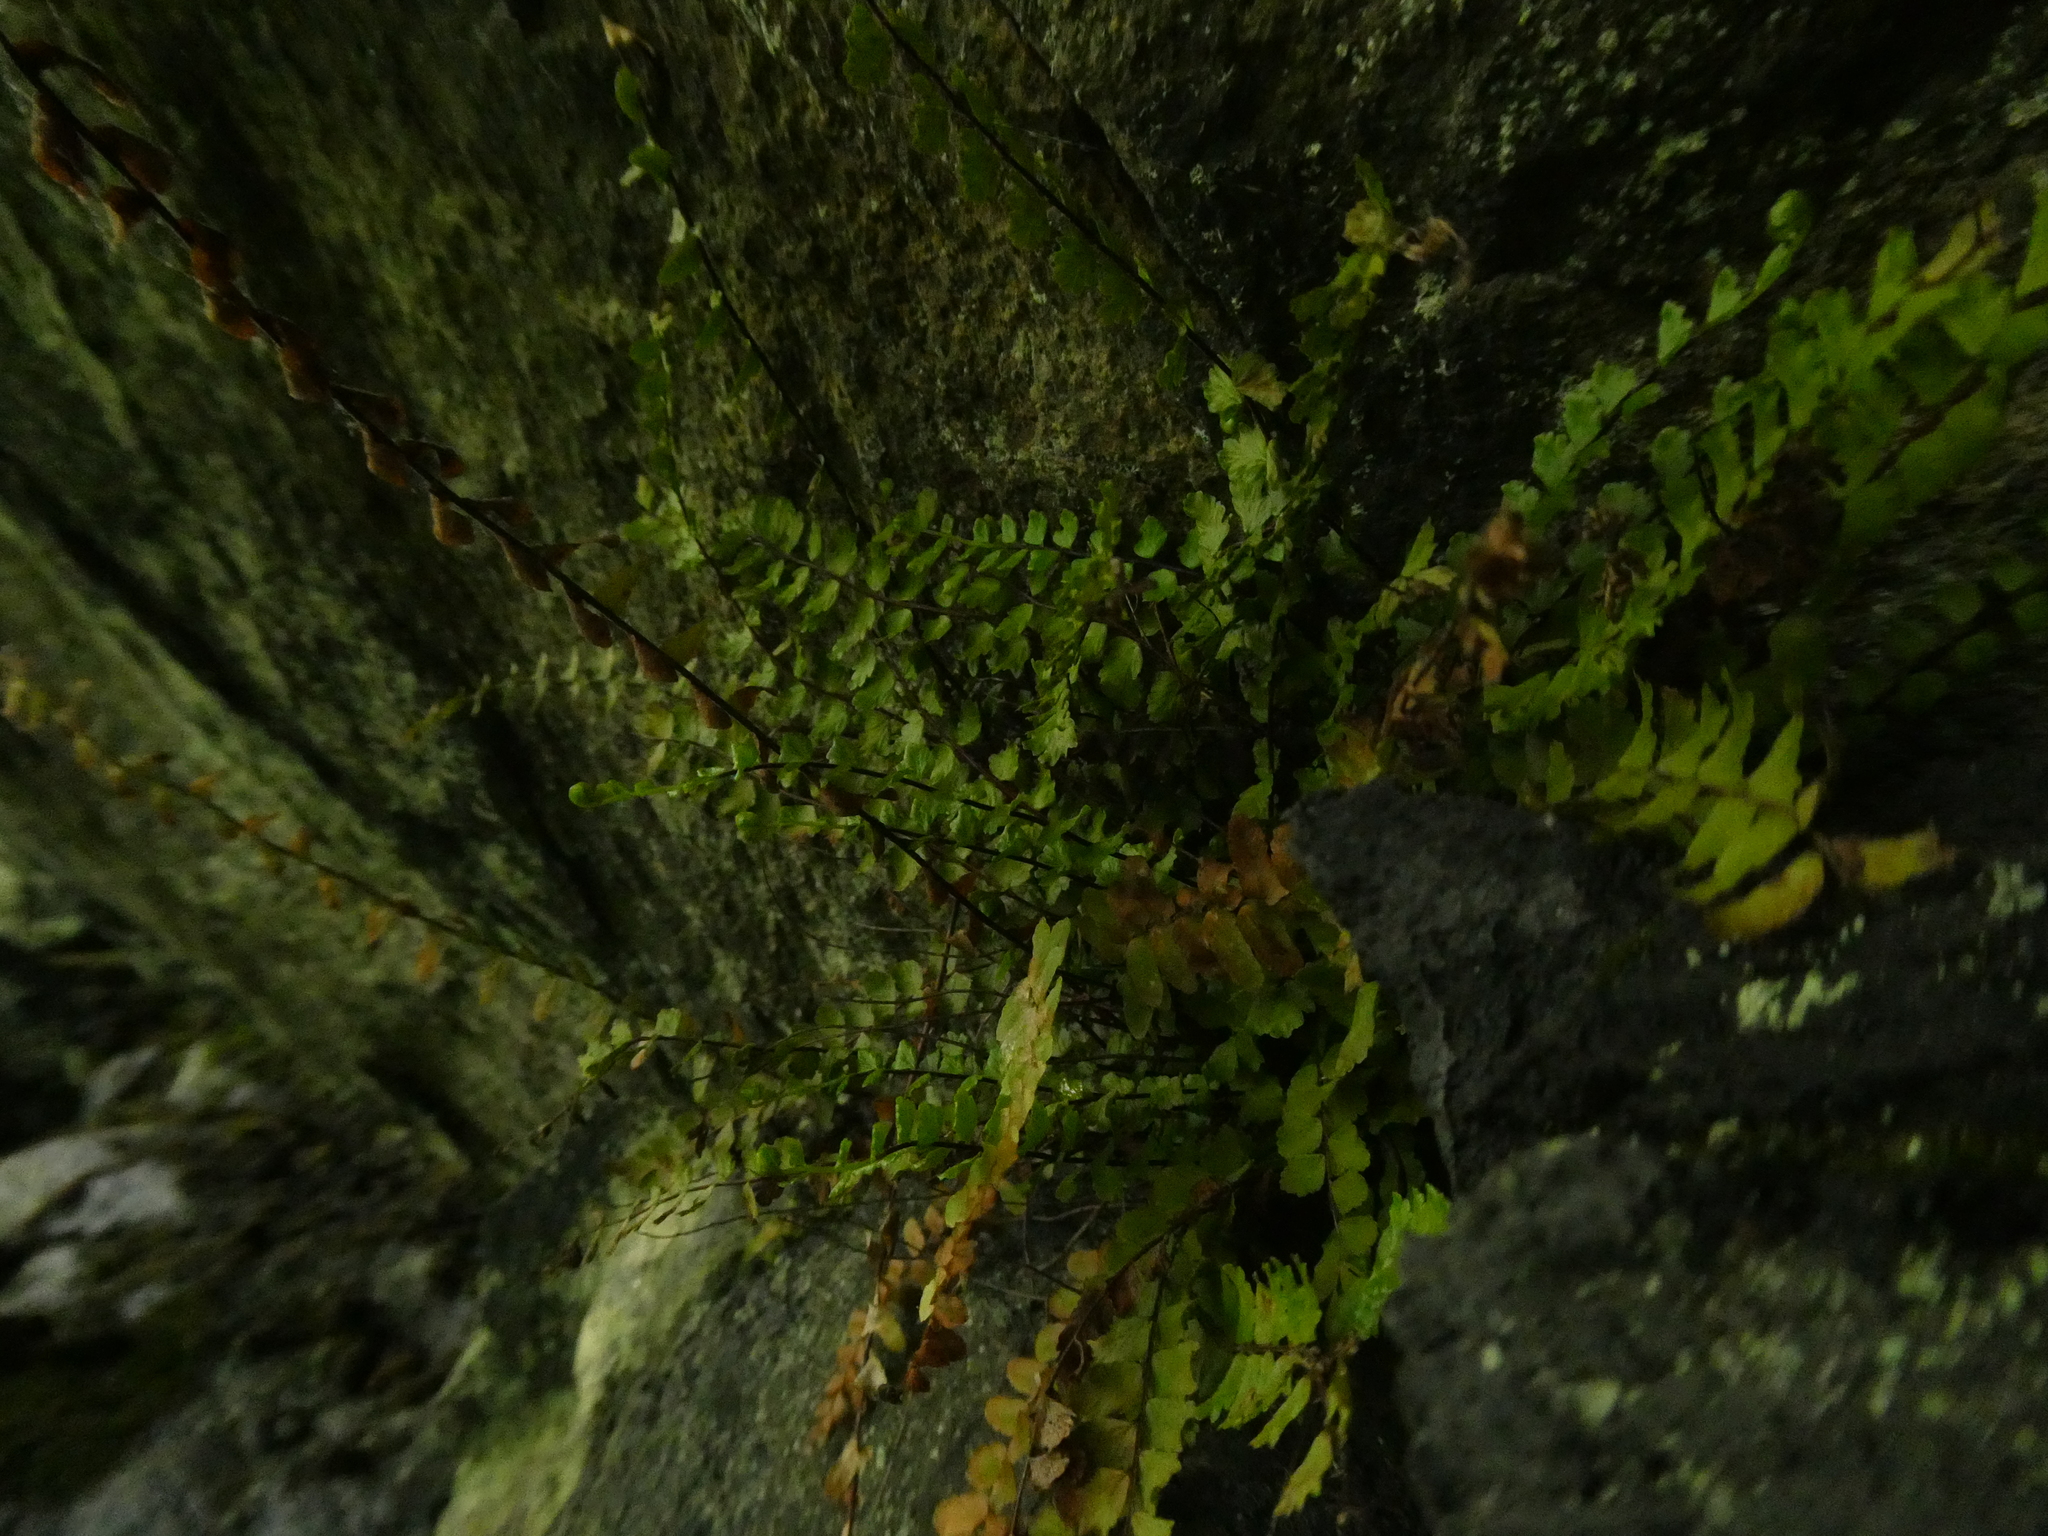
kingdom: Plantae
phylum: Tracheophyta
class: Polypodiopsida
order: Polypodiales
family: Aspleniaceae
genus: Asplenium
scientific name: Asplenium trichomanes
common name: Maidenhair spleenwort
